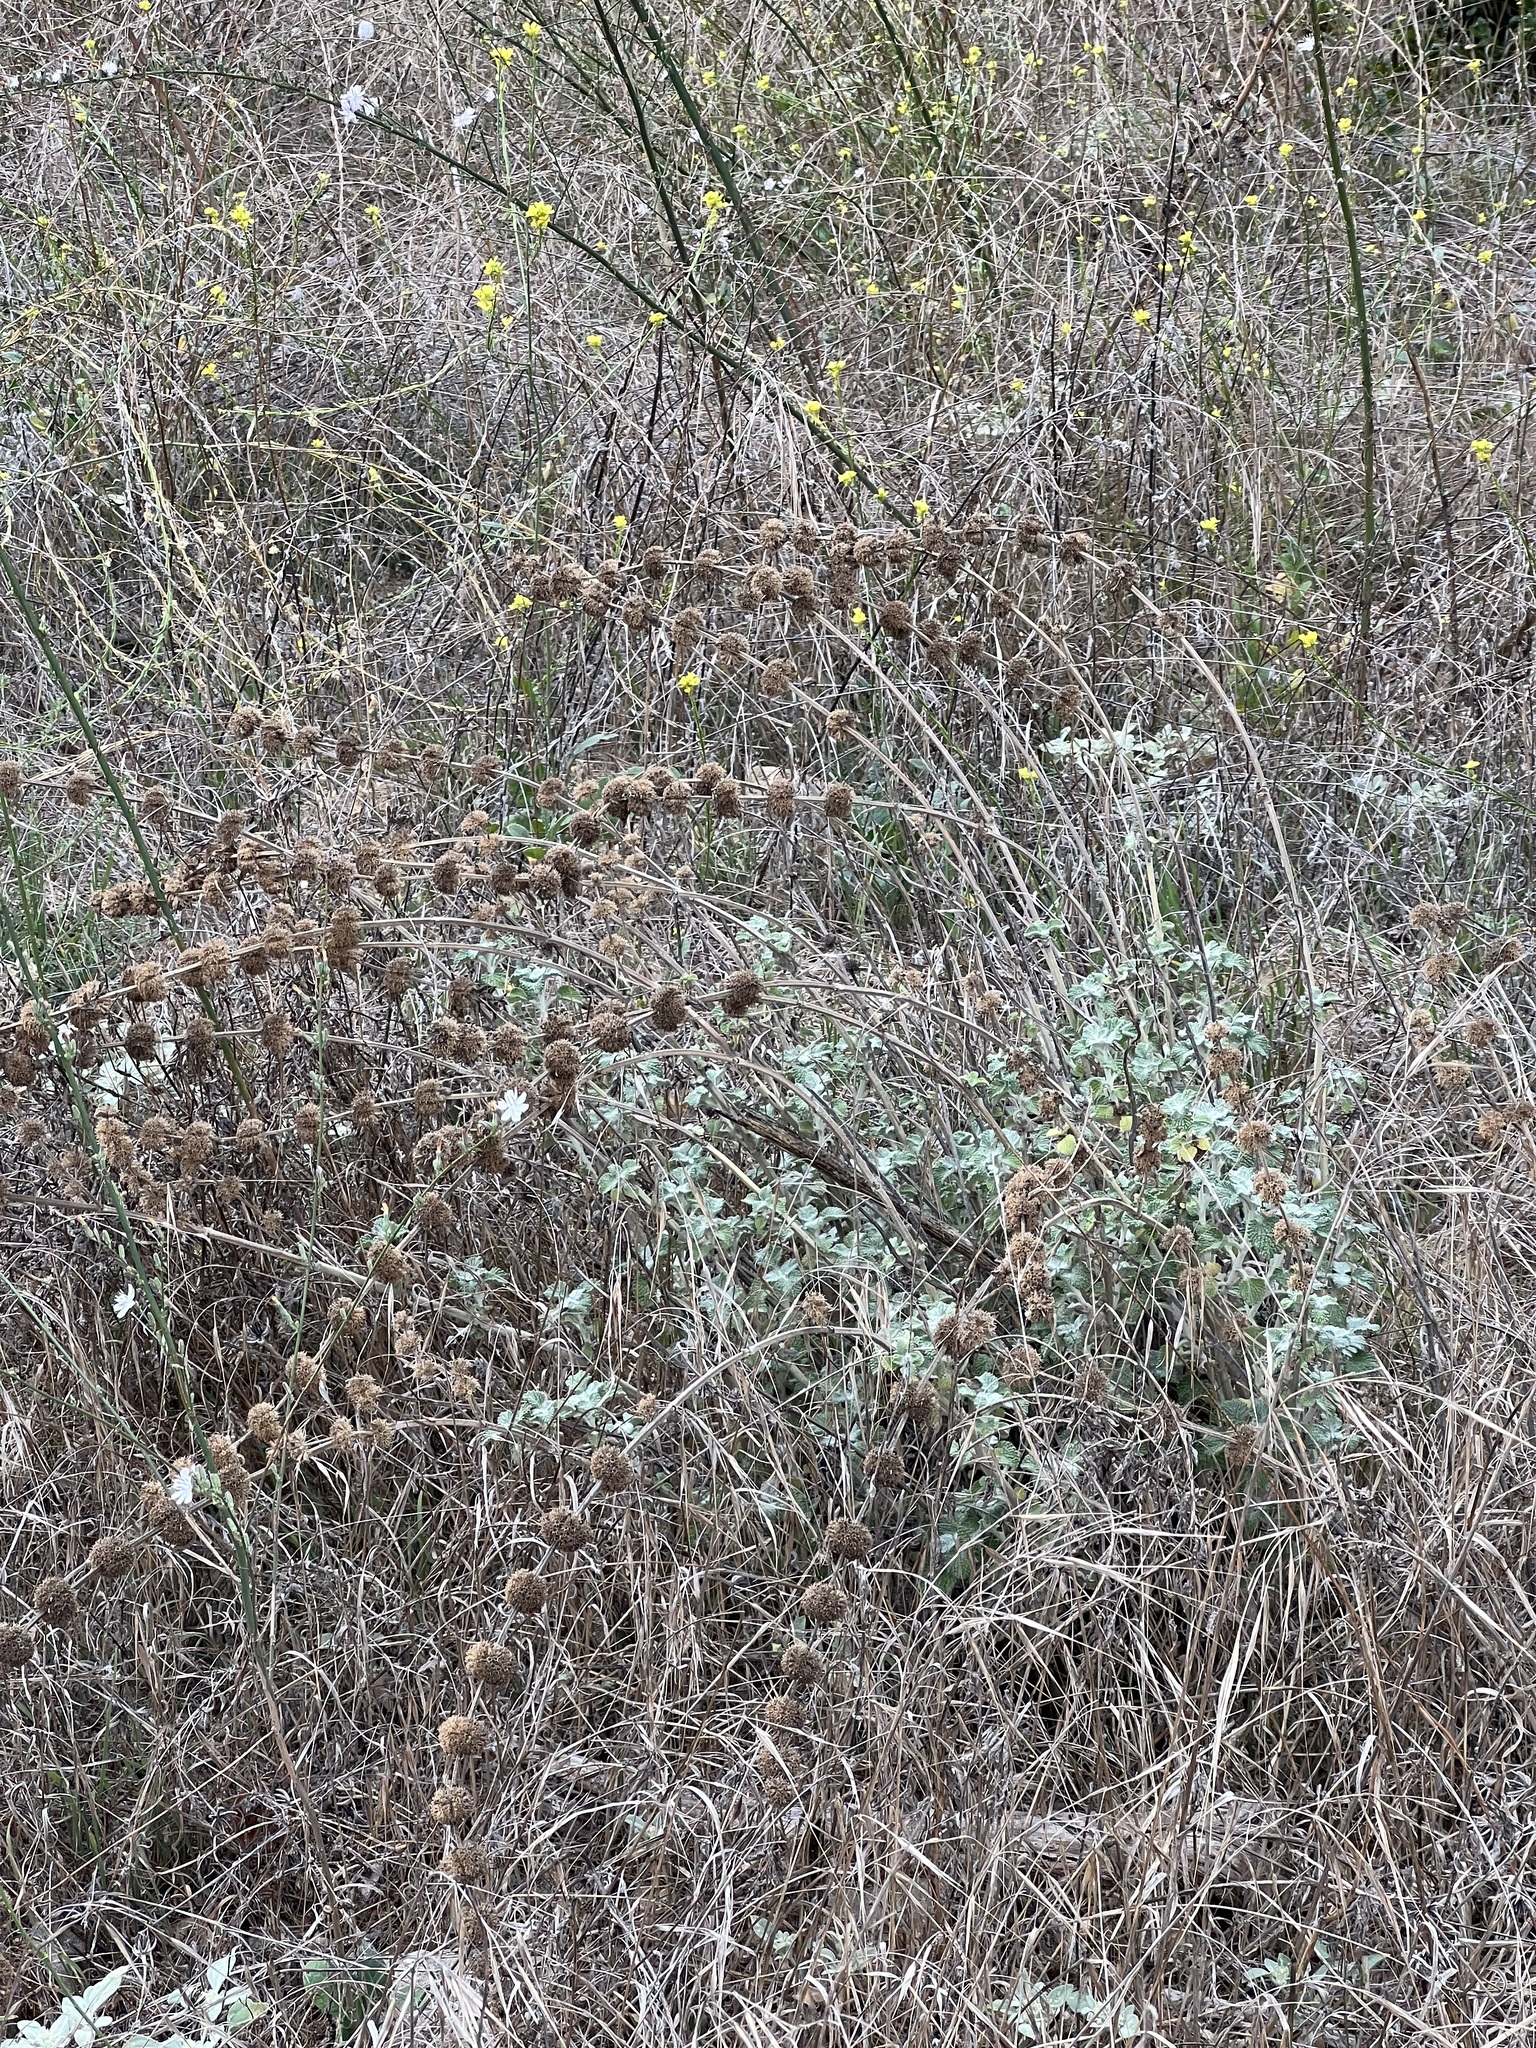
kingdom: Plantae
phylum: Tracheophyta
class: Magnoliopsida
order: Lamiales
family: Lamiaceae
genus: Marrubium
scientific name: Marrubium vulgare
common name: Horehound
